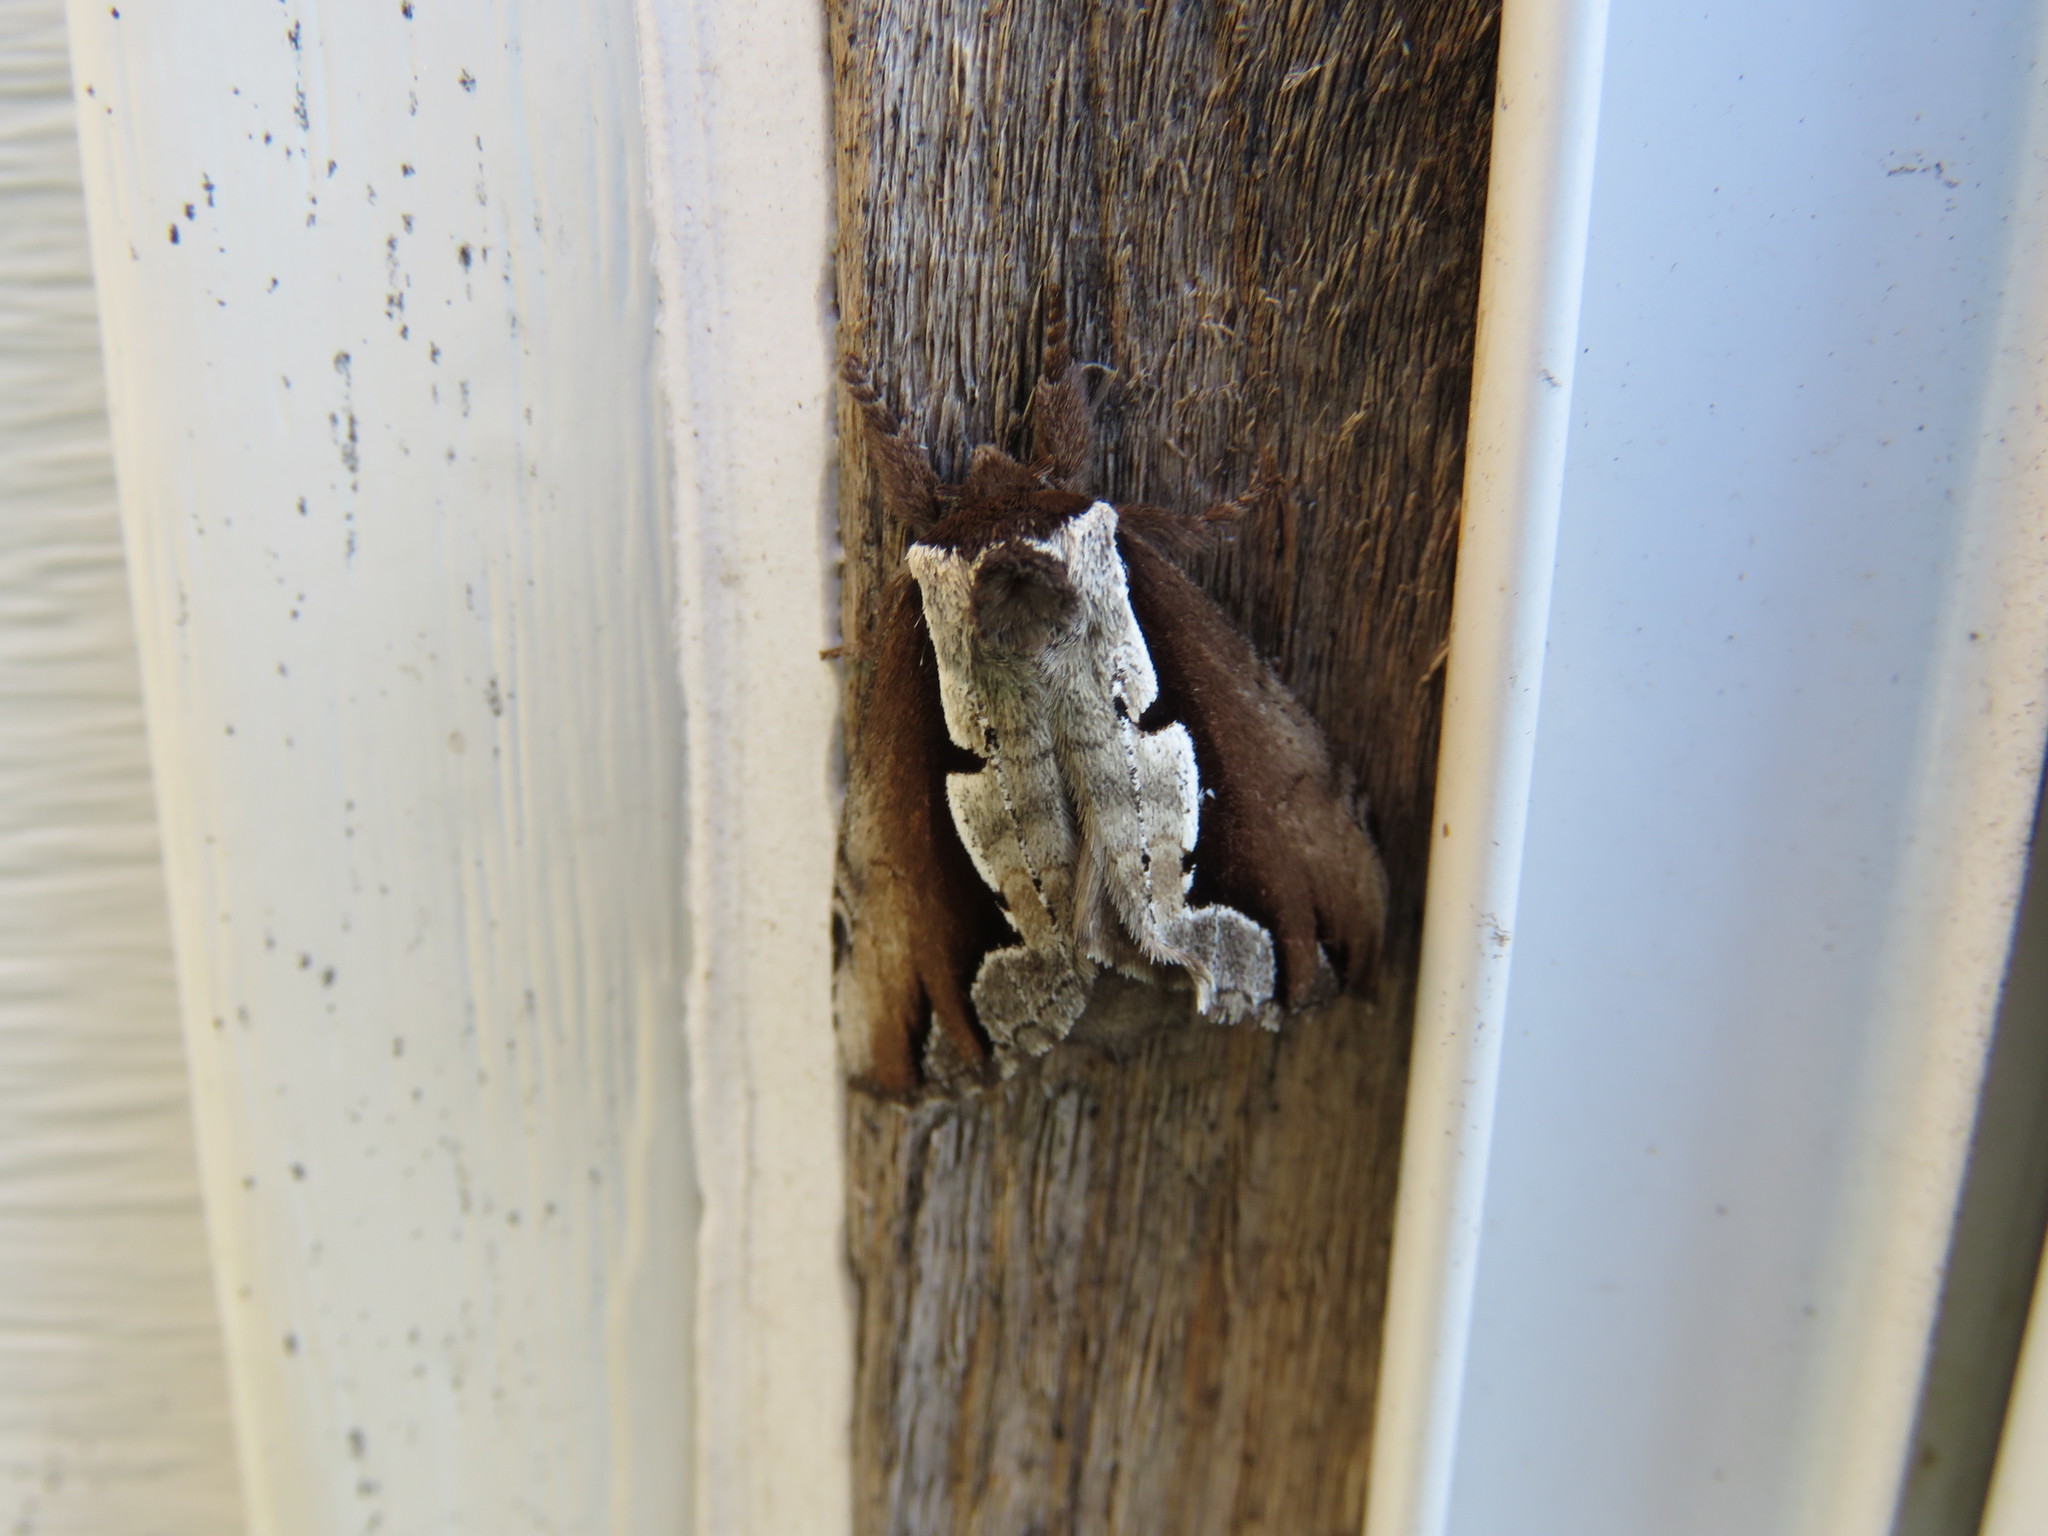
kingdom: Animalia
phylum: Arthropoda
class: Insecta
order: Lepidoptera
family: Notodontidae
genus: Nerice
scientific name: Nerice bidentata
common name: Double-toothed prominent
